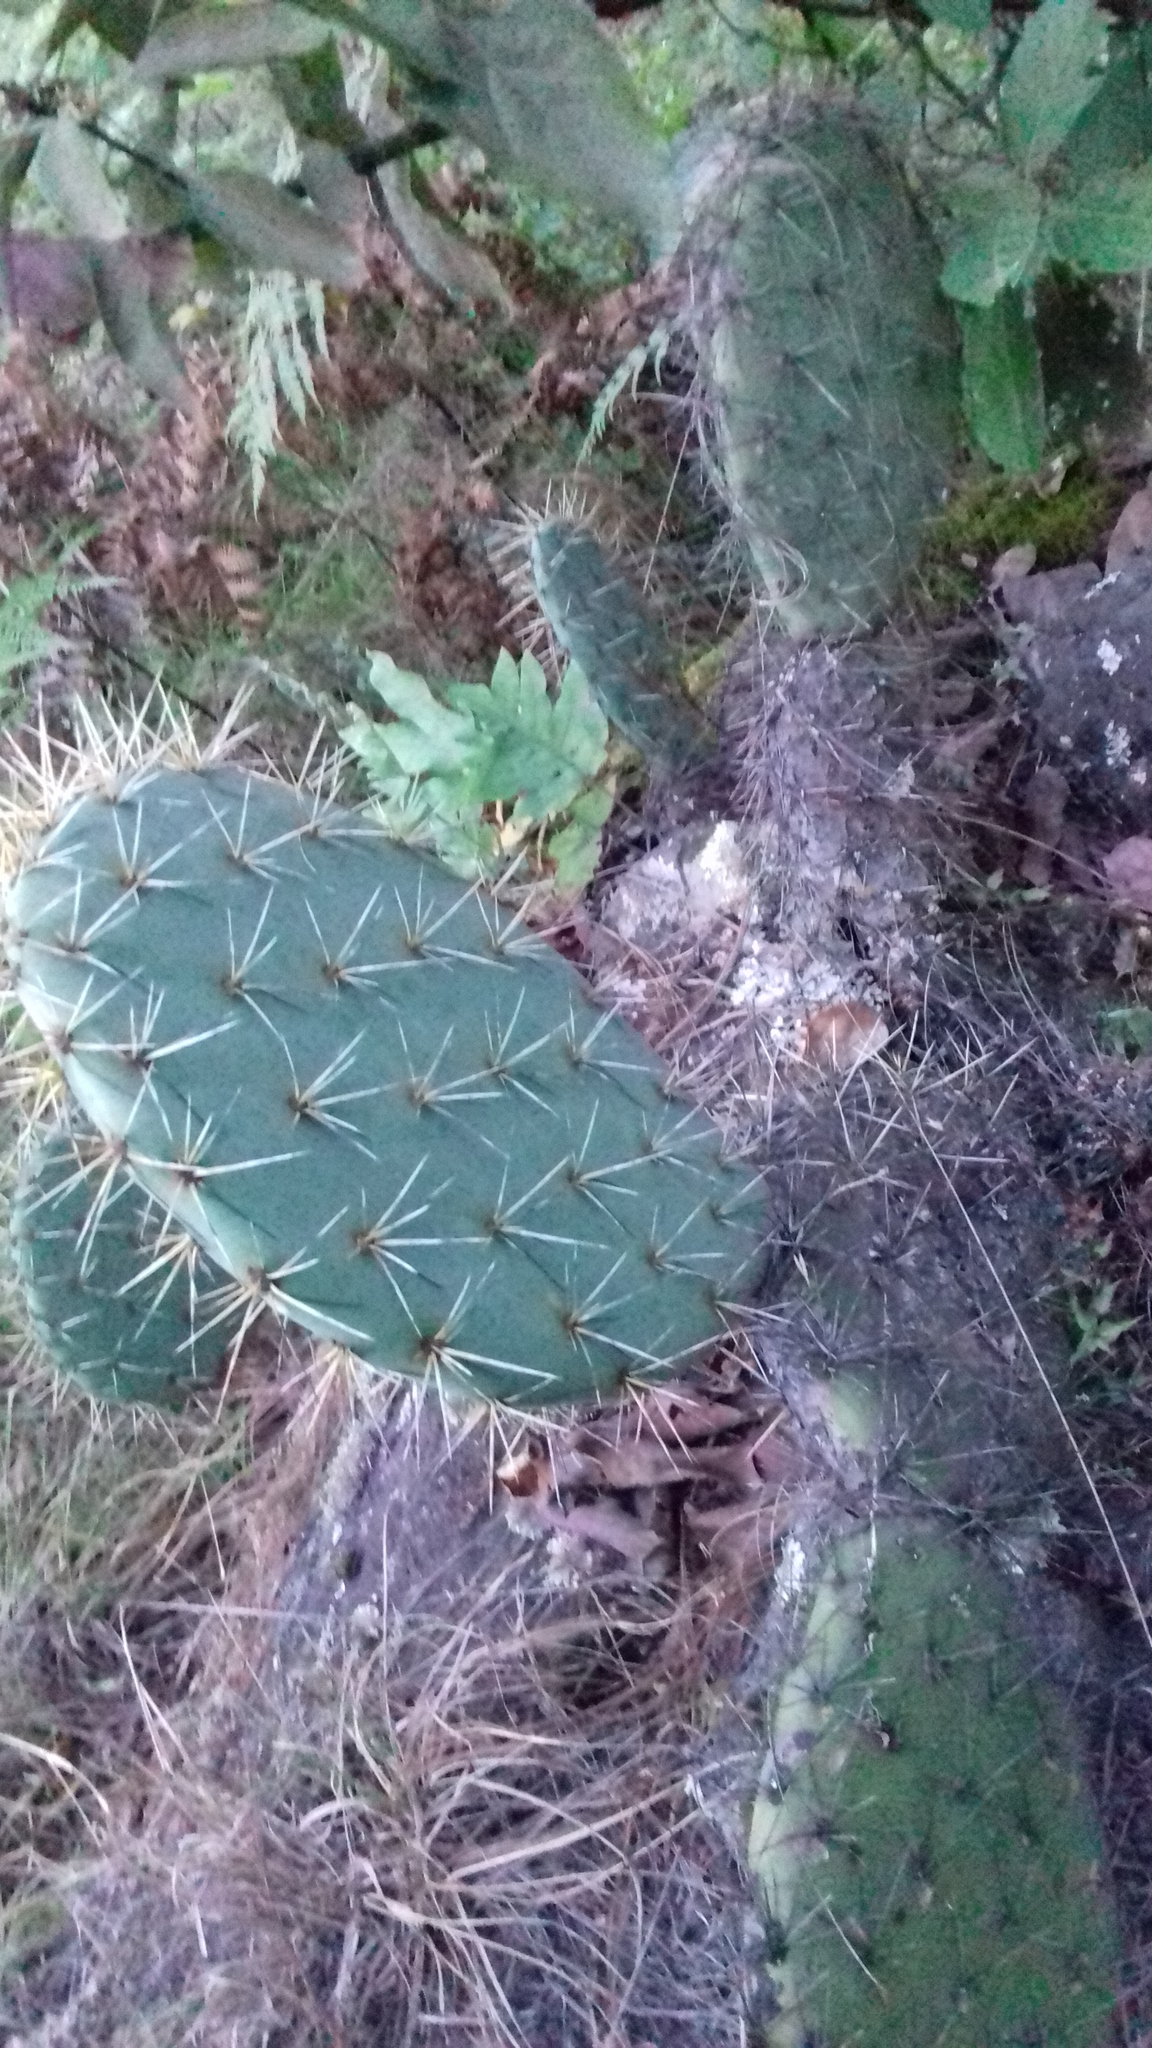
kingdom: Plantae
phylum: Tracheophyta
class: Magnoliopsida
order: Caryophyllales
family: Cactaceae
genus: Opuntia
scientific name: Opuntia robusta
